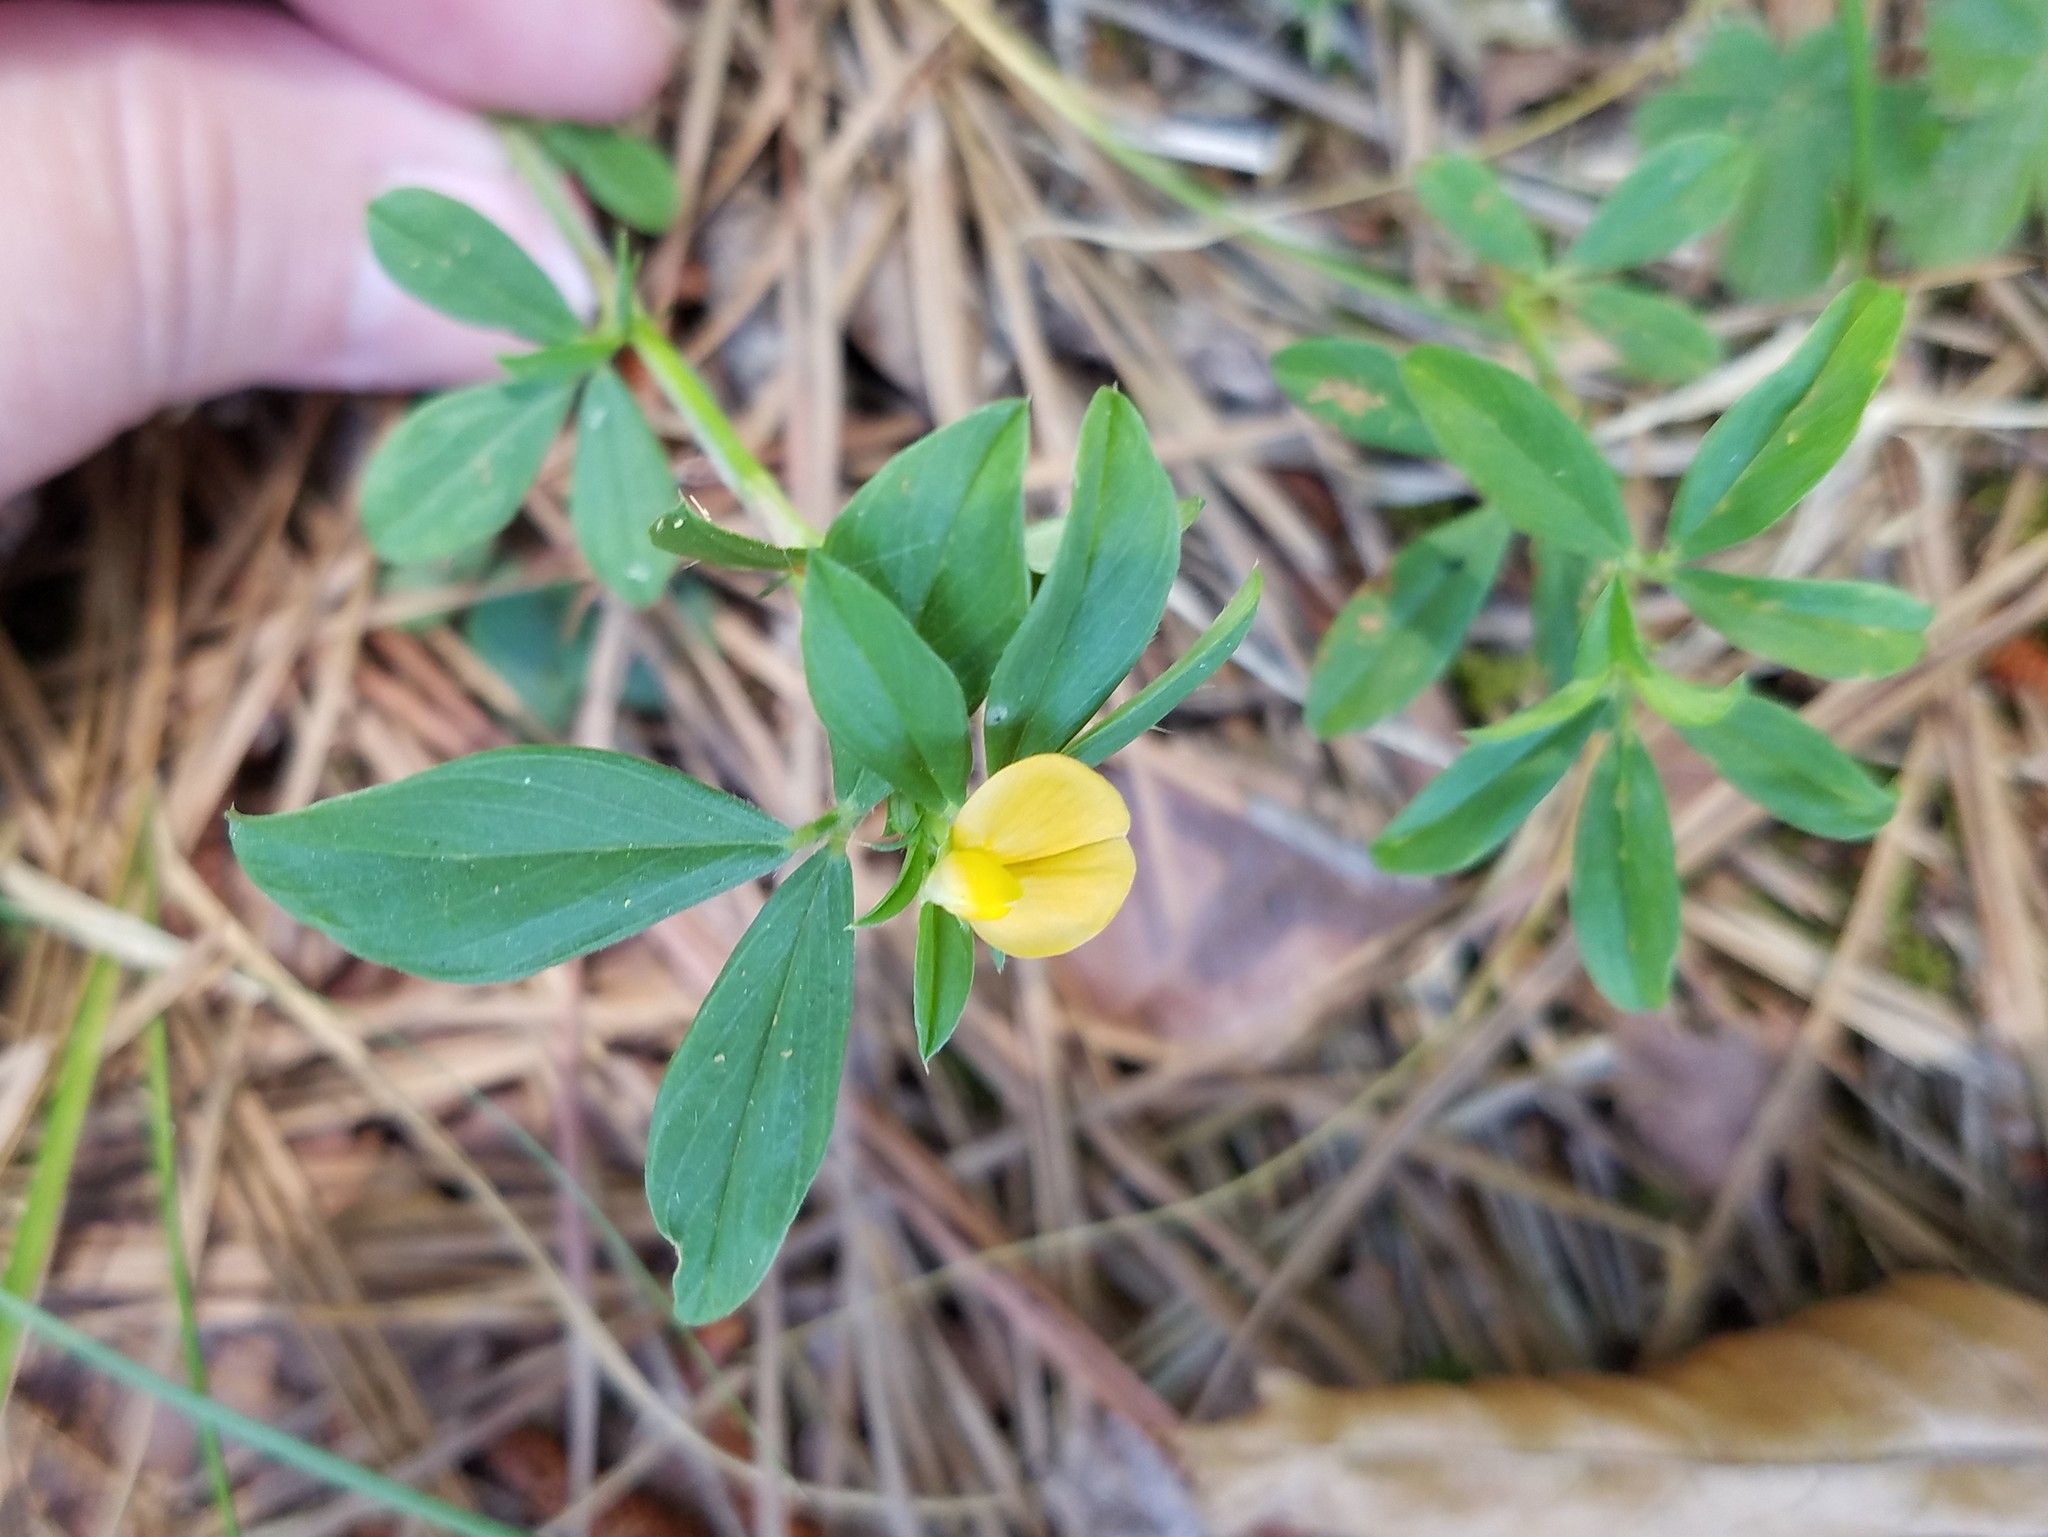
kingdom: Plantae
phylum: Tracheophyta
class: Magnoliopsida
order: Fabales
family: Fabaceae
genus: Stylosanthes
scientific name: Stylosanthes biflora
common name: Two-flower pencil-flower
